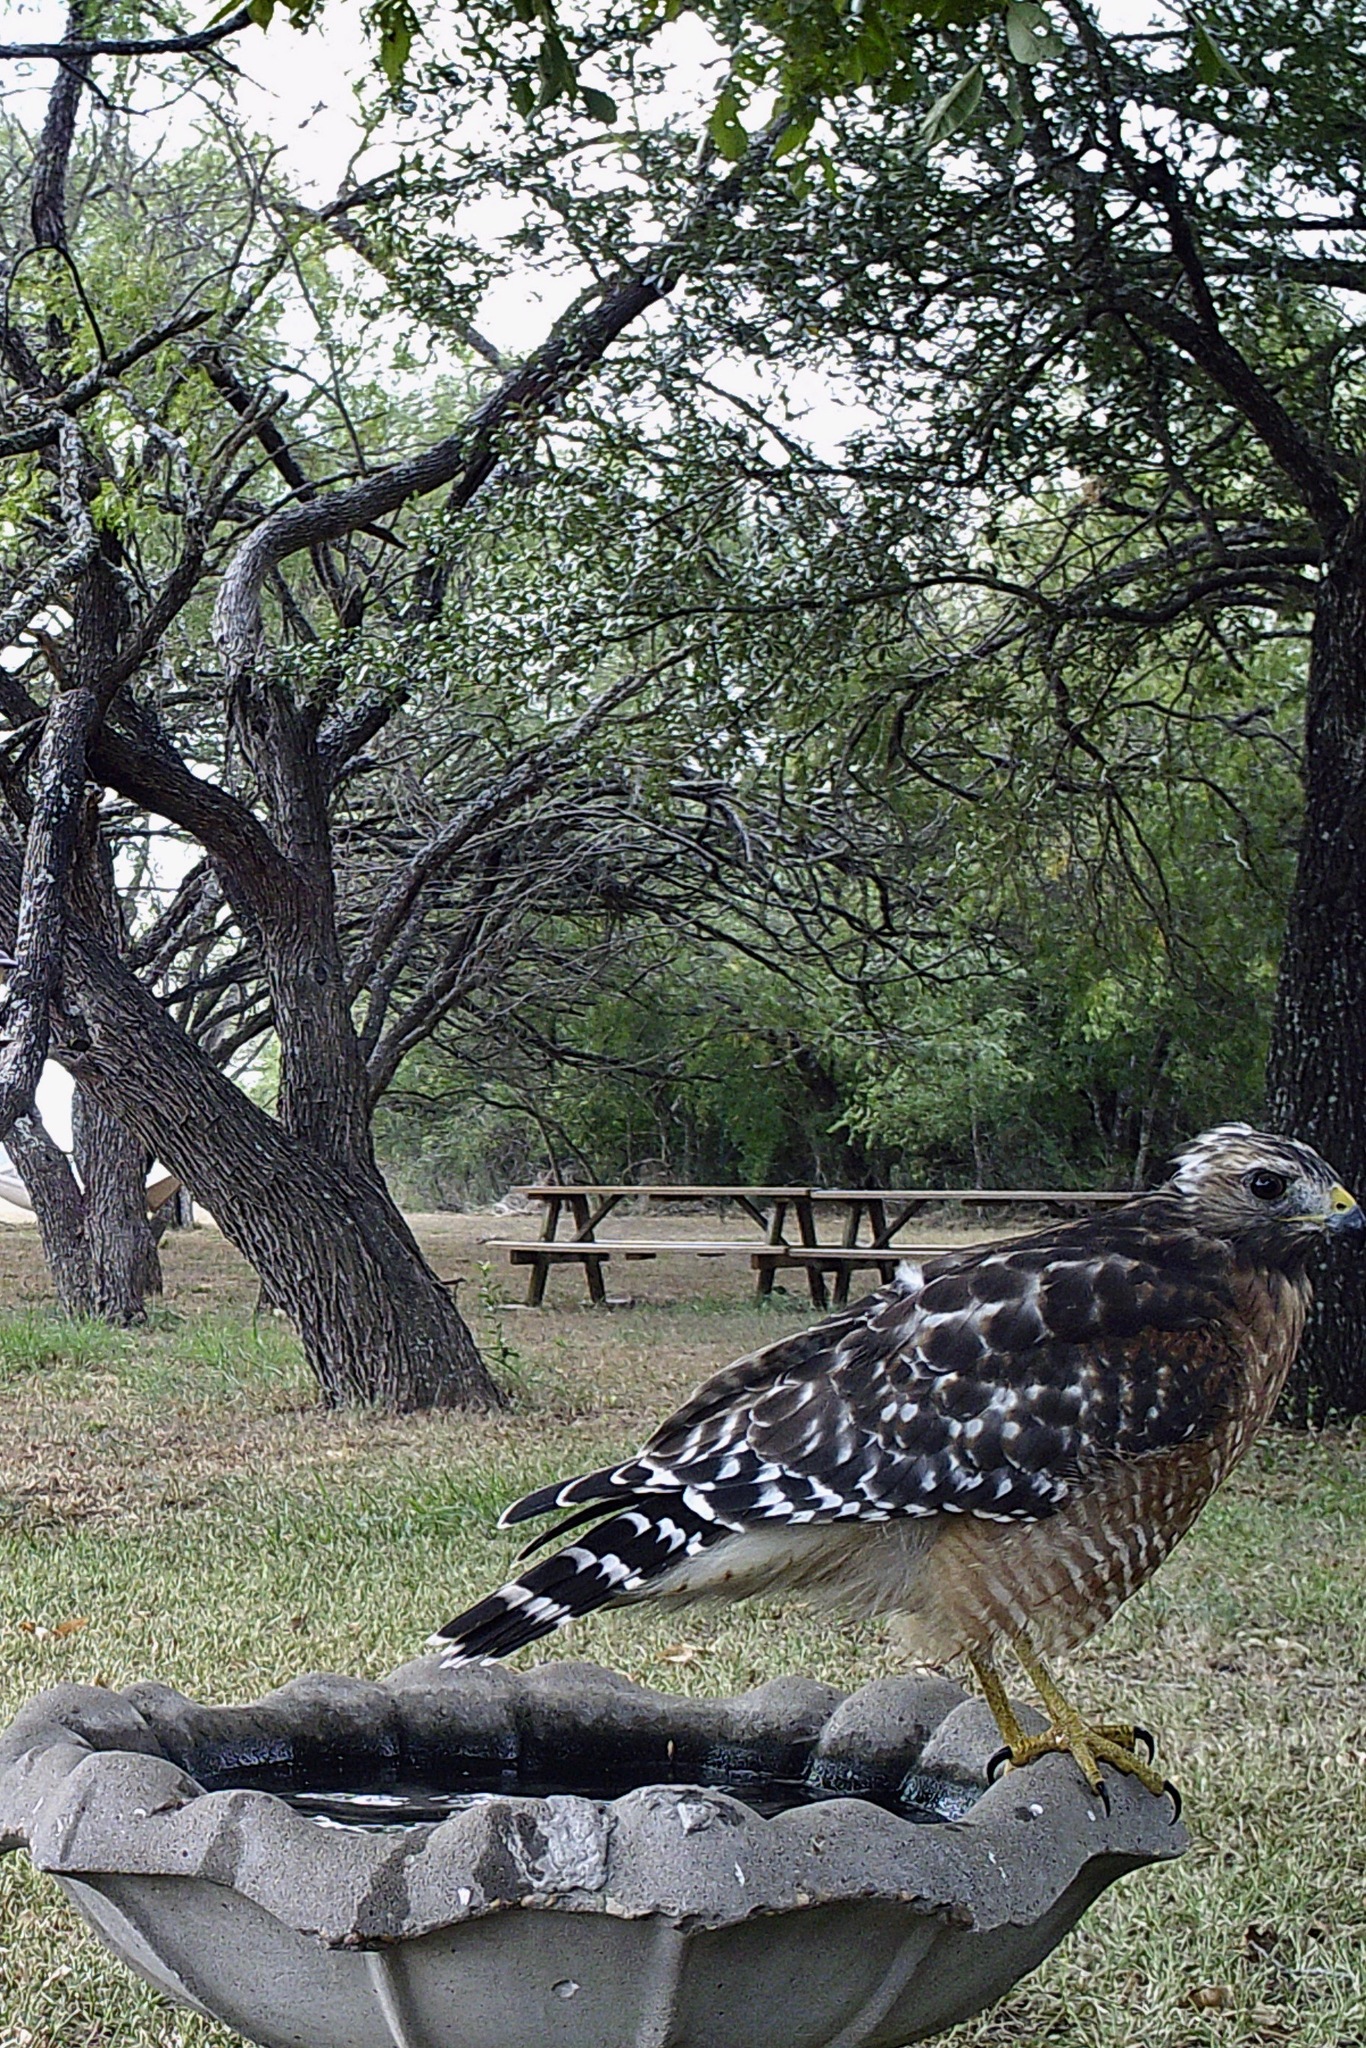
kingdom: Animalia
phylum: Chordata
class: Aves
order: Accipitriformes
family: Accipitridae
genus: Buteo
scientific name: Buteo lineatus
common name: Red-shouldered hawk
